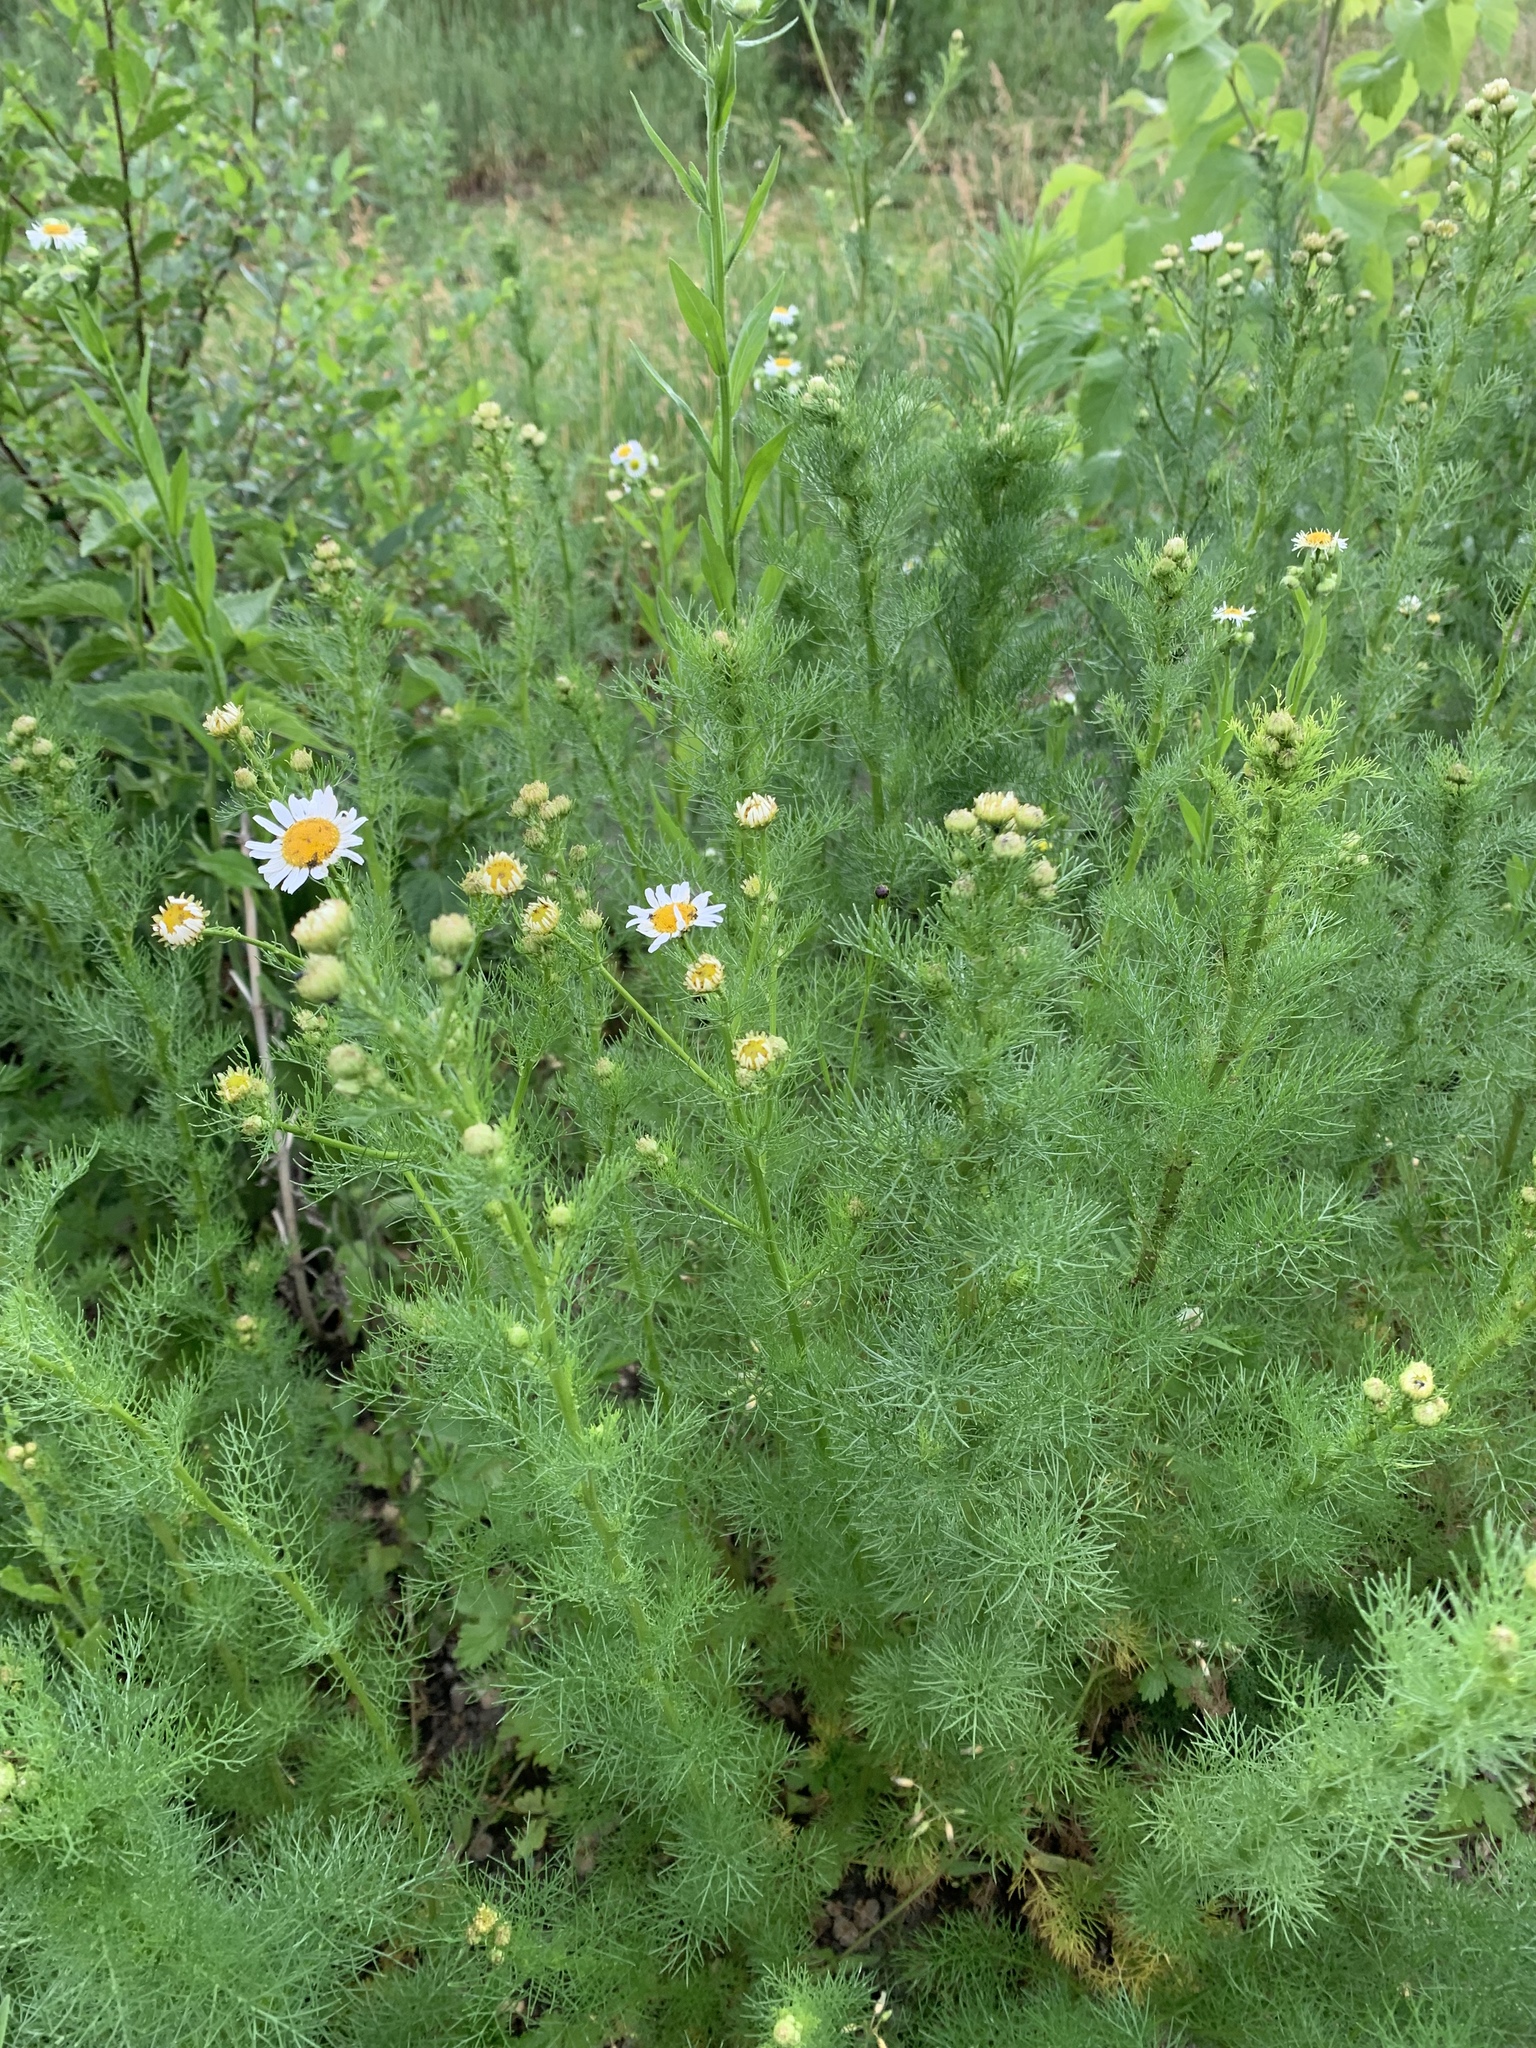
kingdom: Plantae
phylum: Tracheophyta
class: Magnoliopsida
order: Asterales
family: Asteraceae
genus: Tripleurospermum
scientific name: Tripleurospermum inodorum
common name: Scentless mayweed
